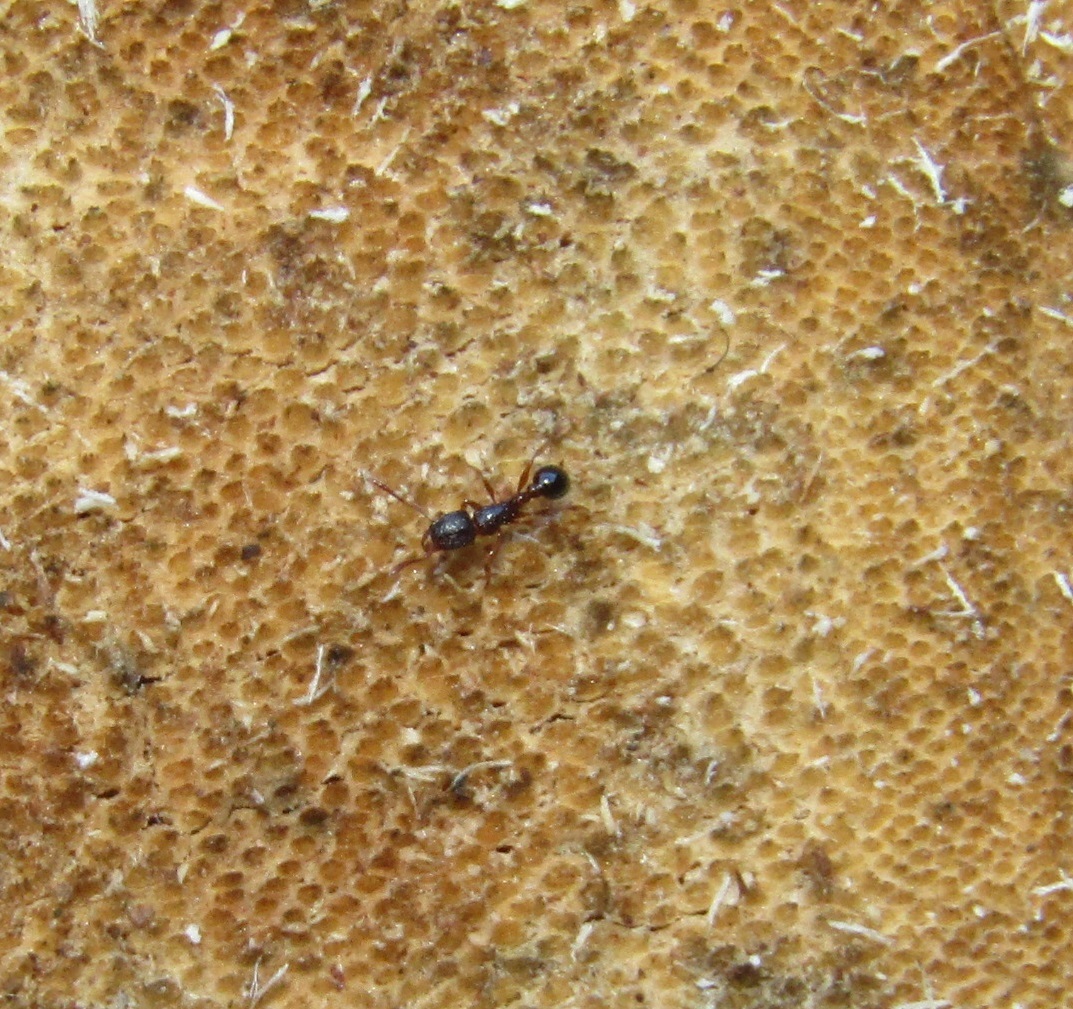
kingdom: Animalia
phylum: Arthropoda
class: Insecta
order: Hymenoptera
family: Formicidae
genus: Tetramorium
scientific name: Tetramorium grassii
